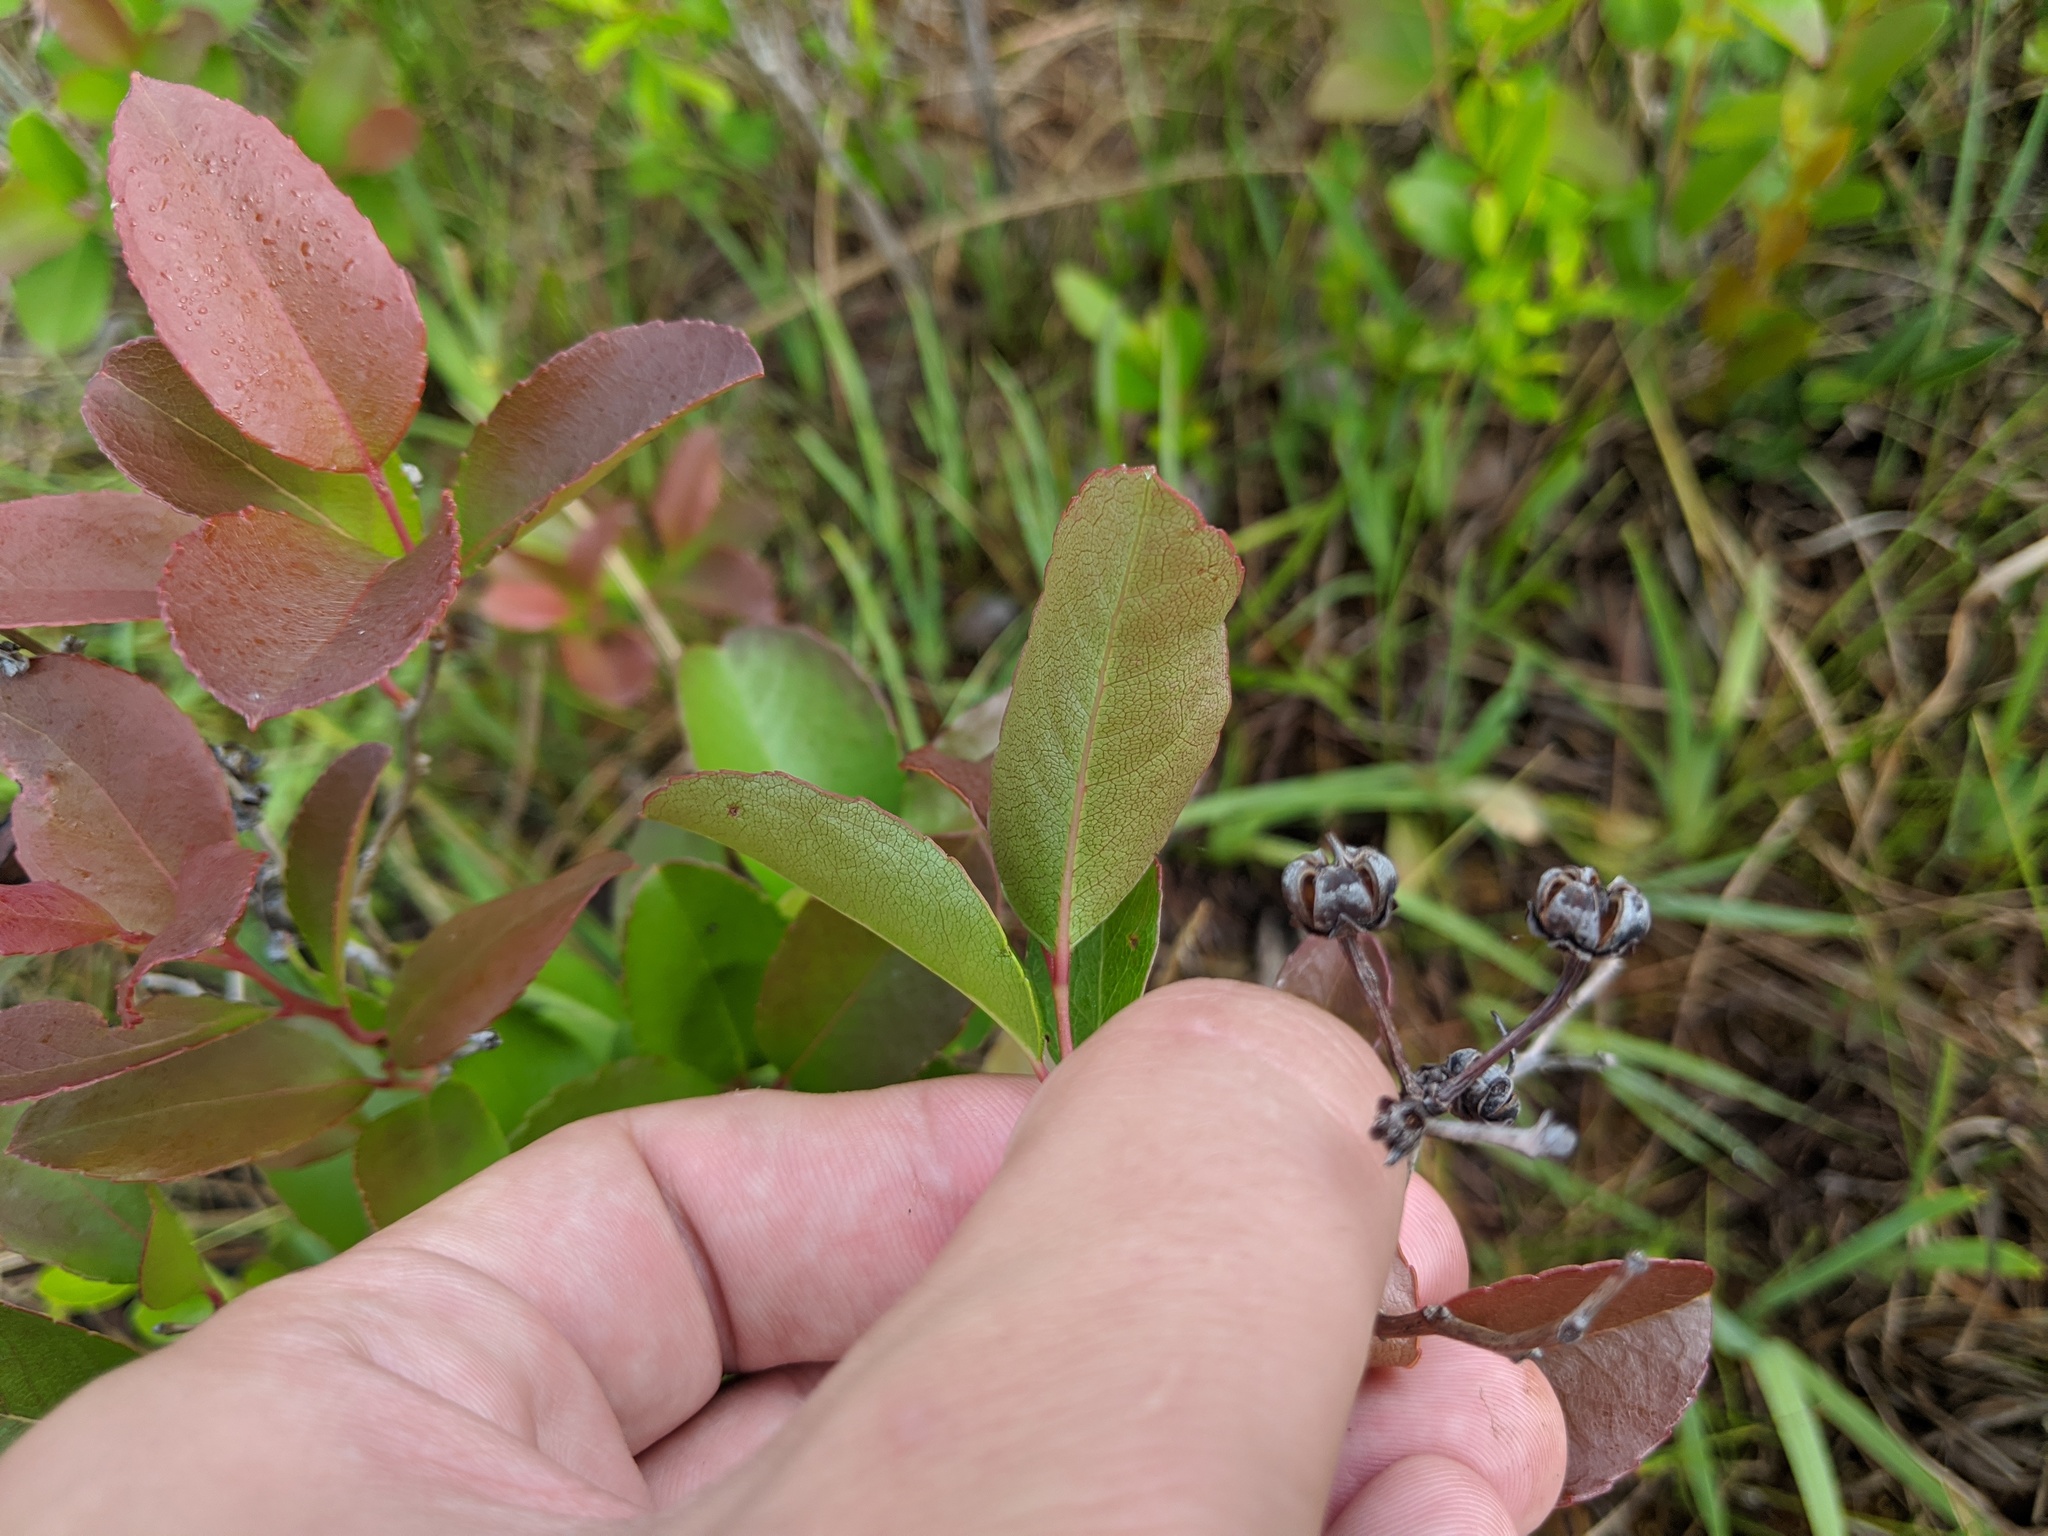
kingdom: Plantae
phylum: Tracheophyta
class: Magnoliopsida
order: Ericales
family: Ericaceae
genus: Zenobia
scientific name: Zenobia pulverulenta
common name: Zenobia
